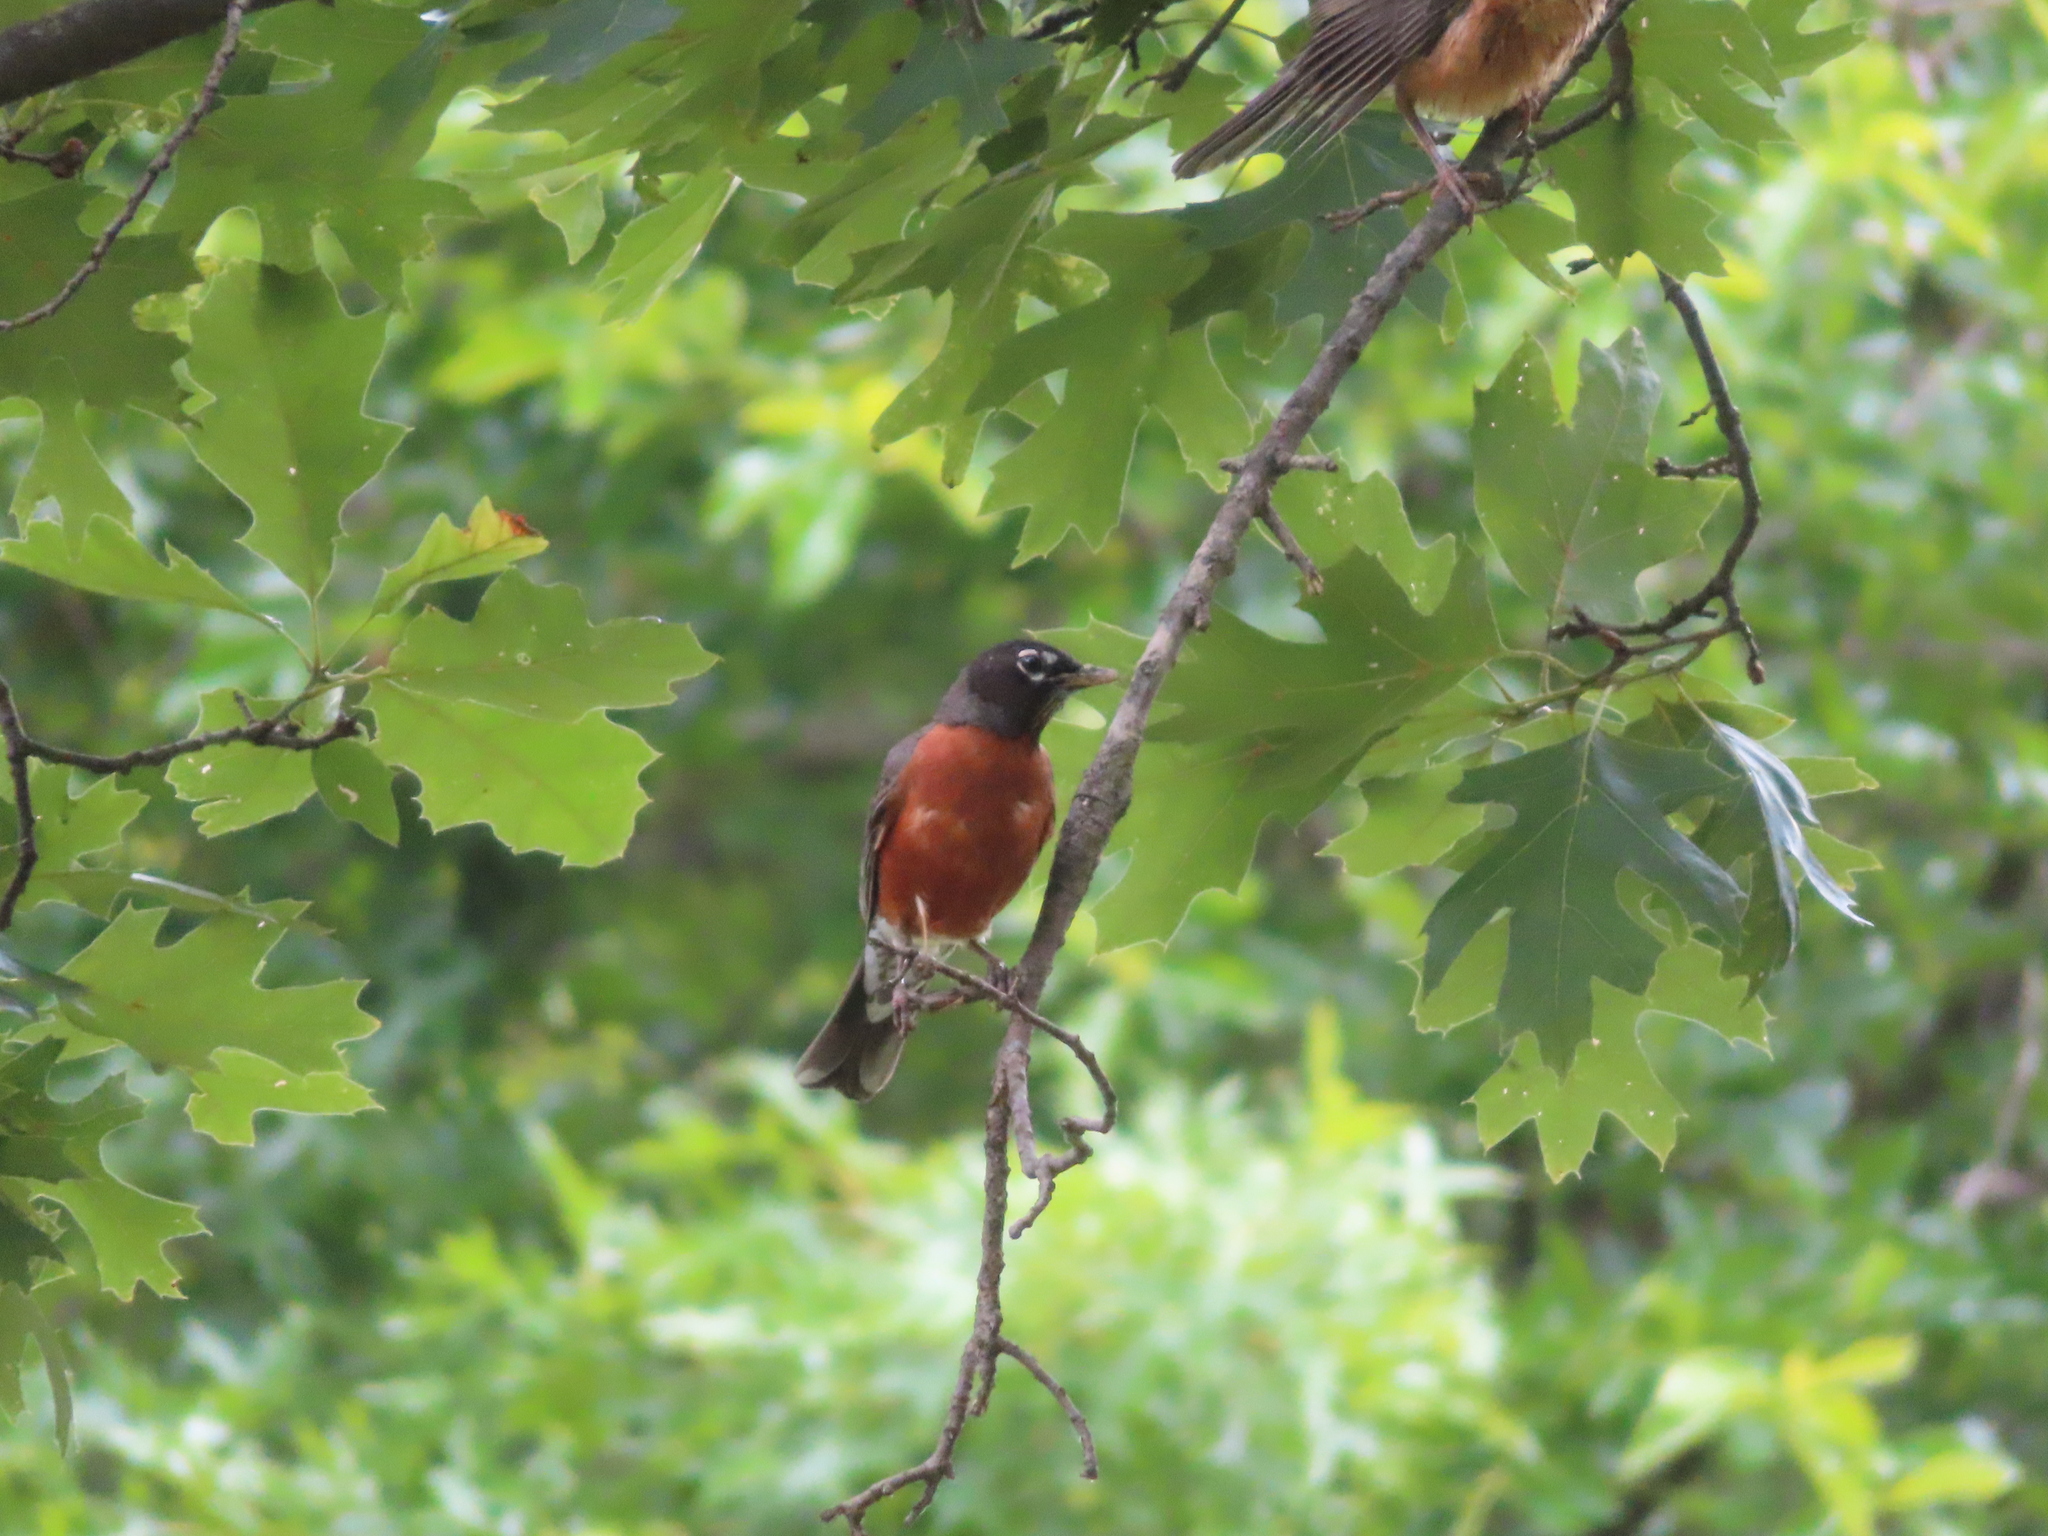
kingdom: Animalia
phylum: Chordata
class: Aves
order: Passeriformes
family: Turdidae
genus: Turdus
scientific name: Turdus migratorius
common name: American robin
